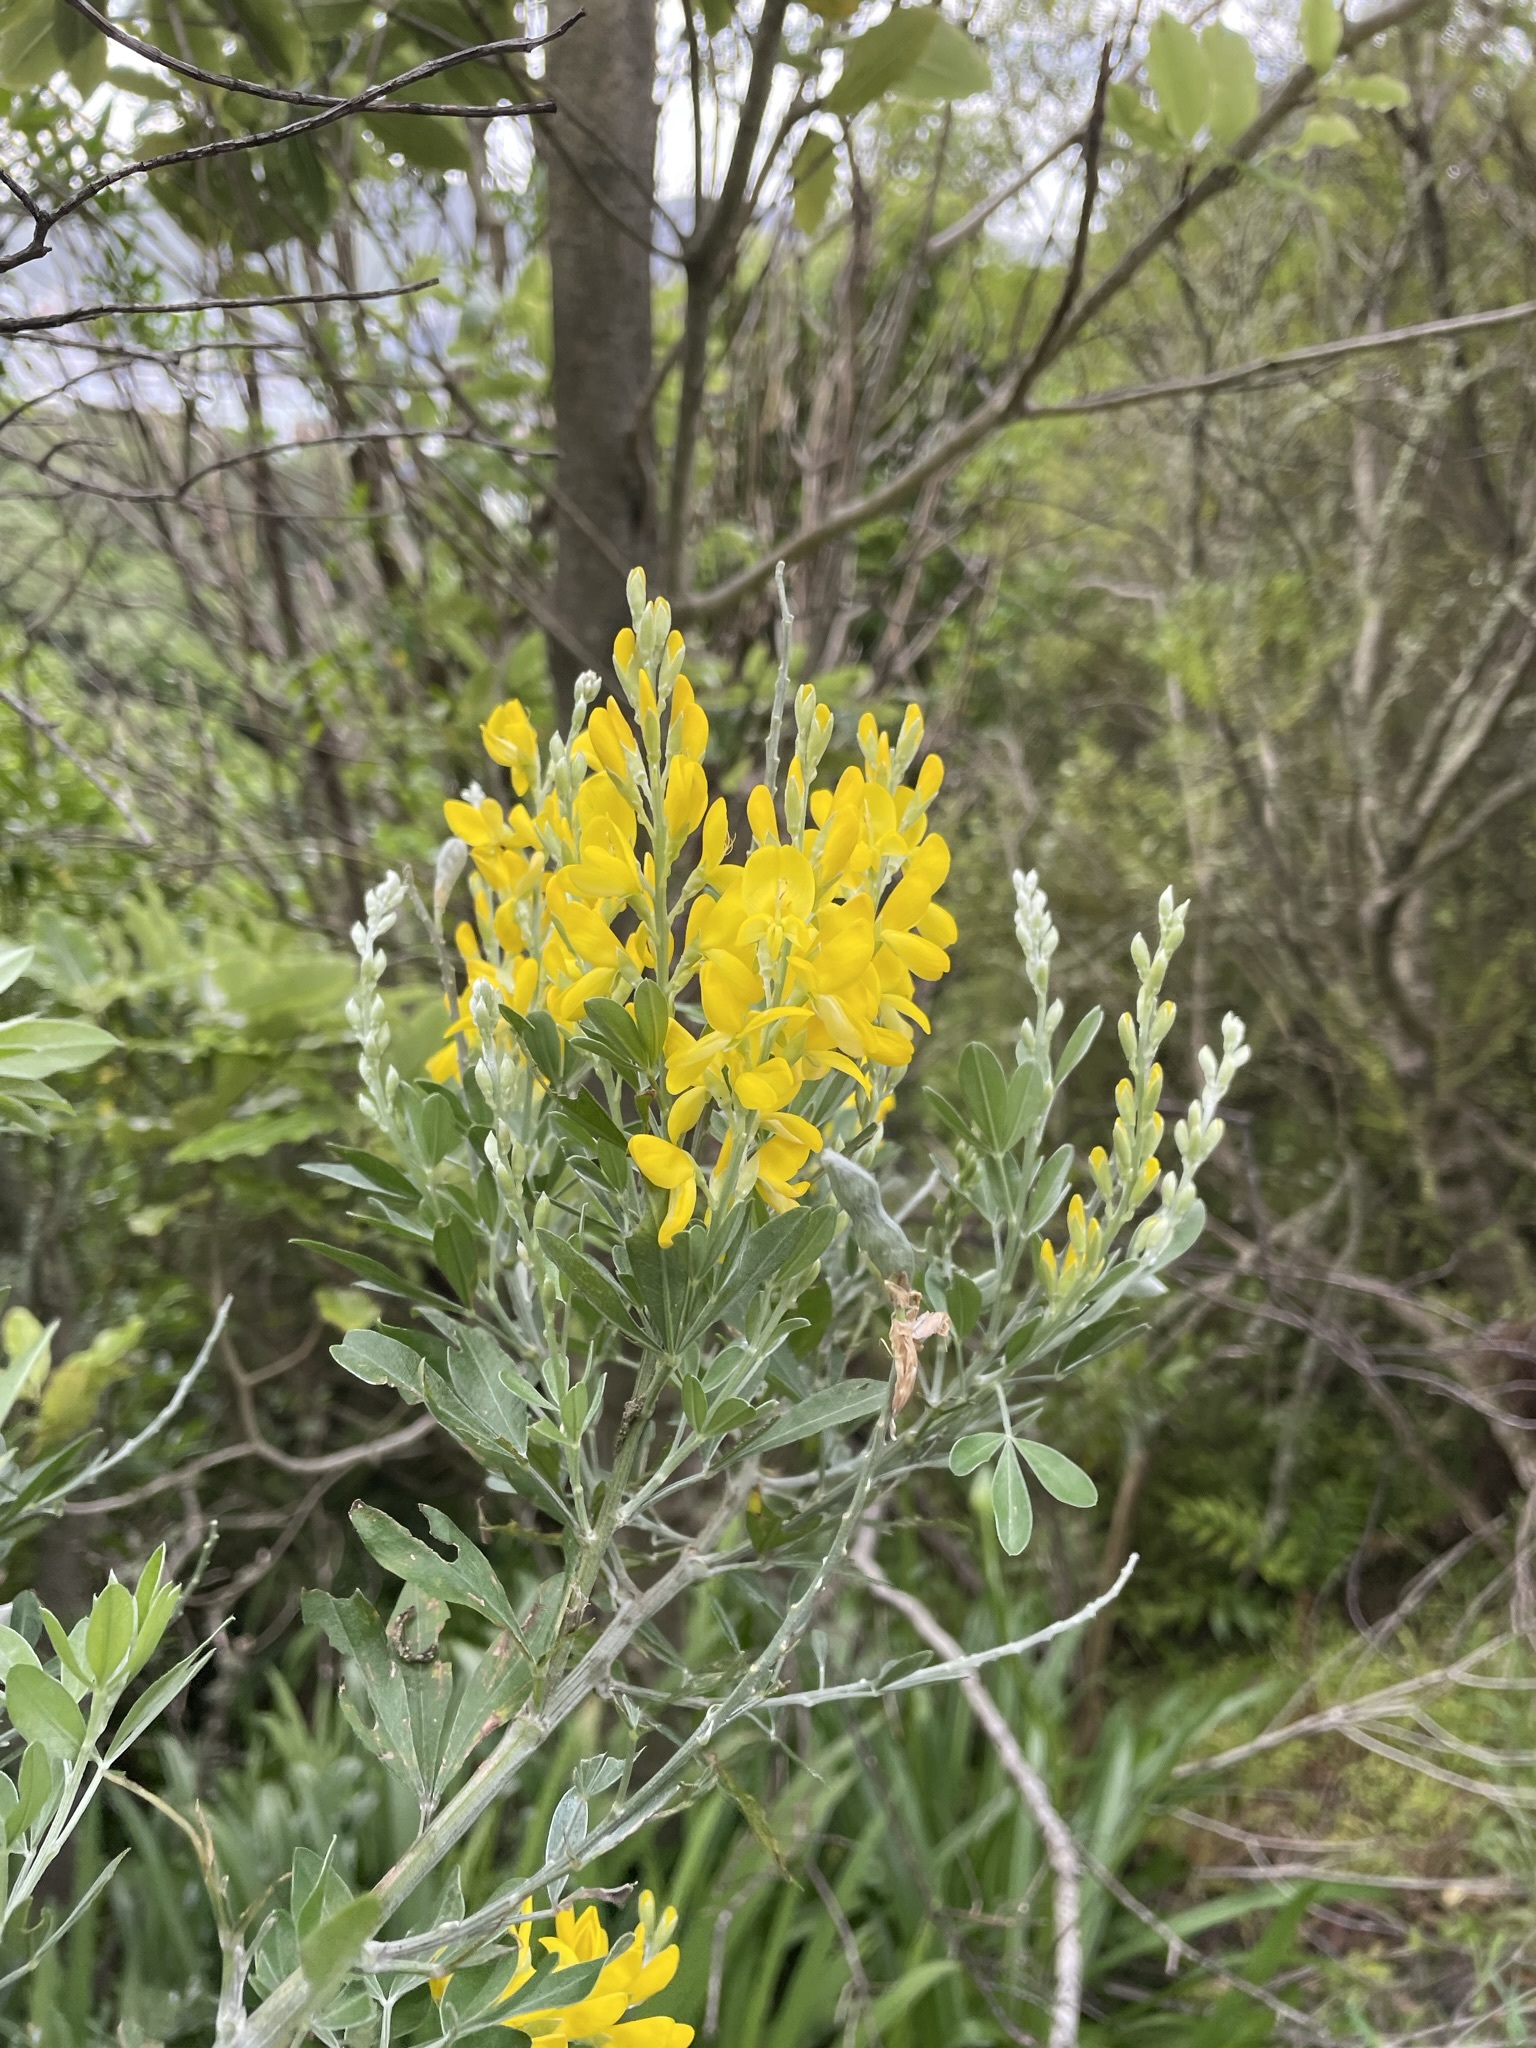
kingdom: Plantae
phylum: Tracheophyta
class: Magnoliopsida
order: Fabales
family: Fabaceae
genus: Genista
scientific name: Genista stenopetala
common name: Leafy broom
